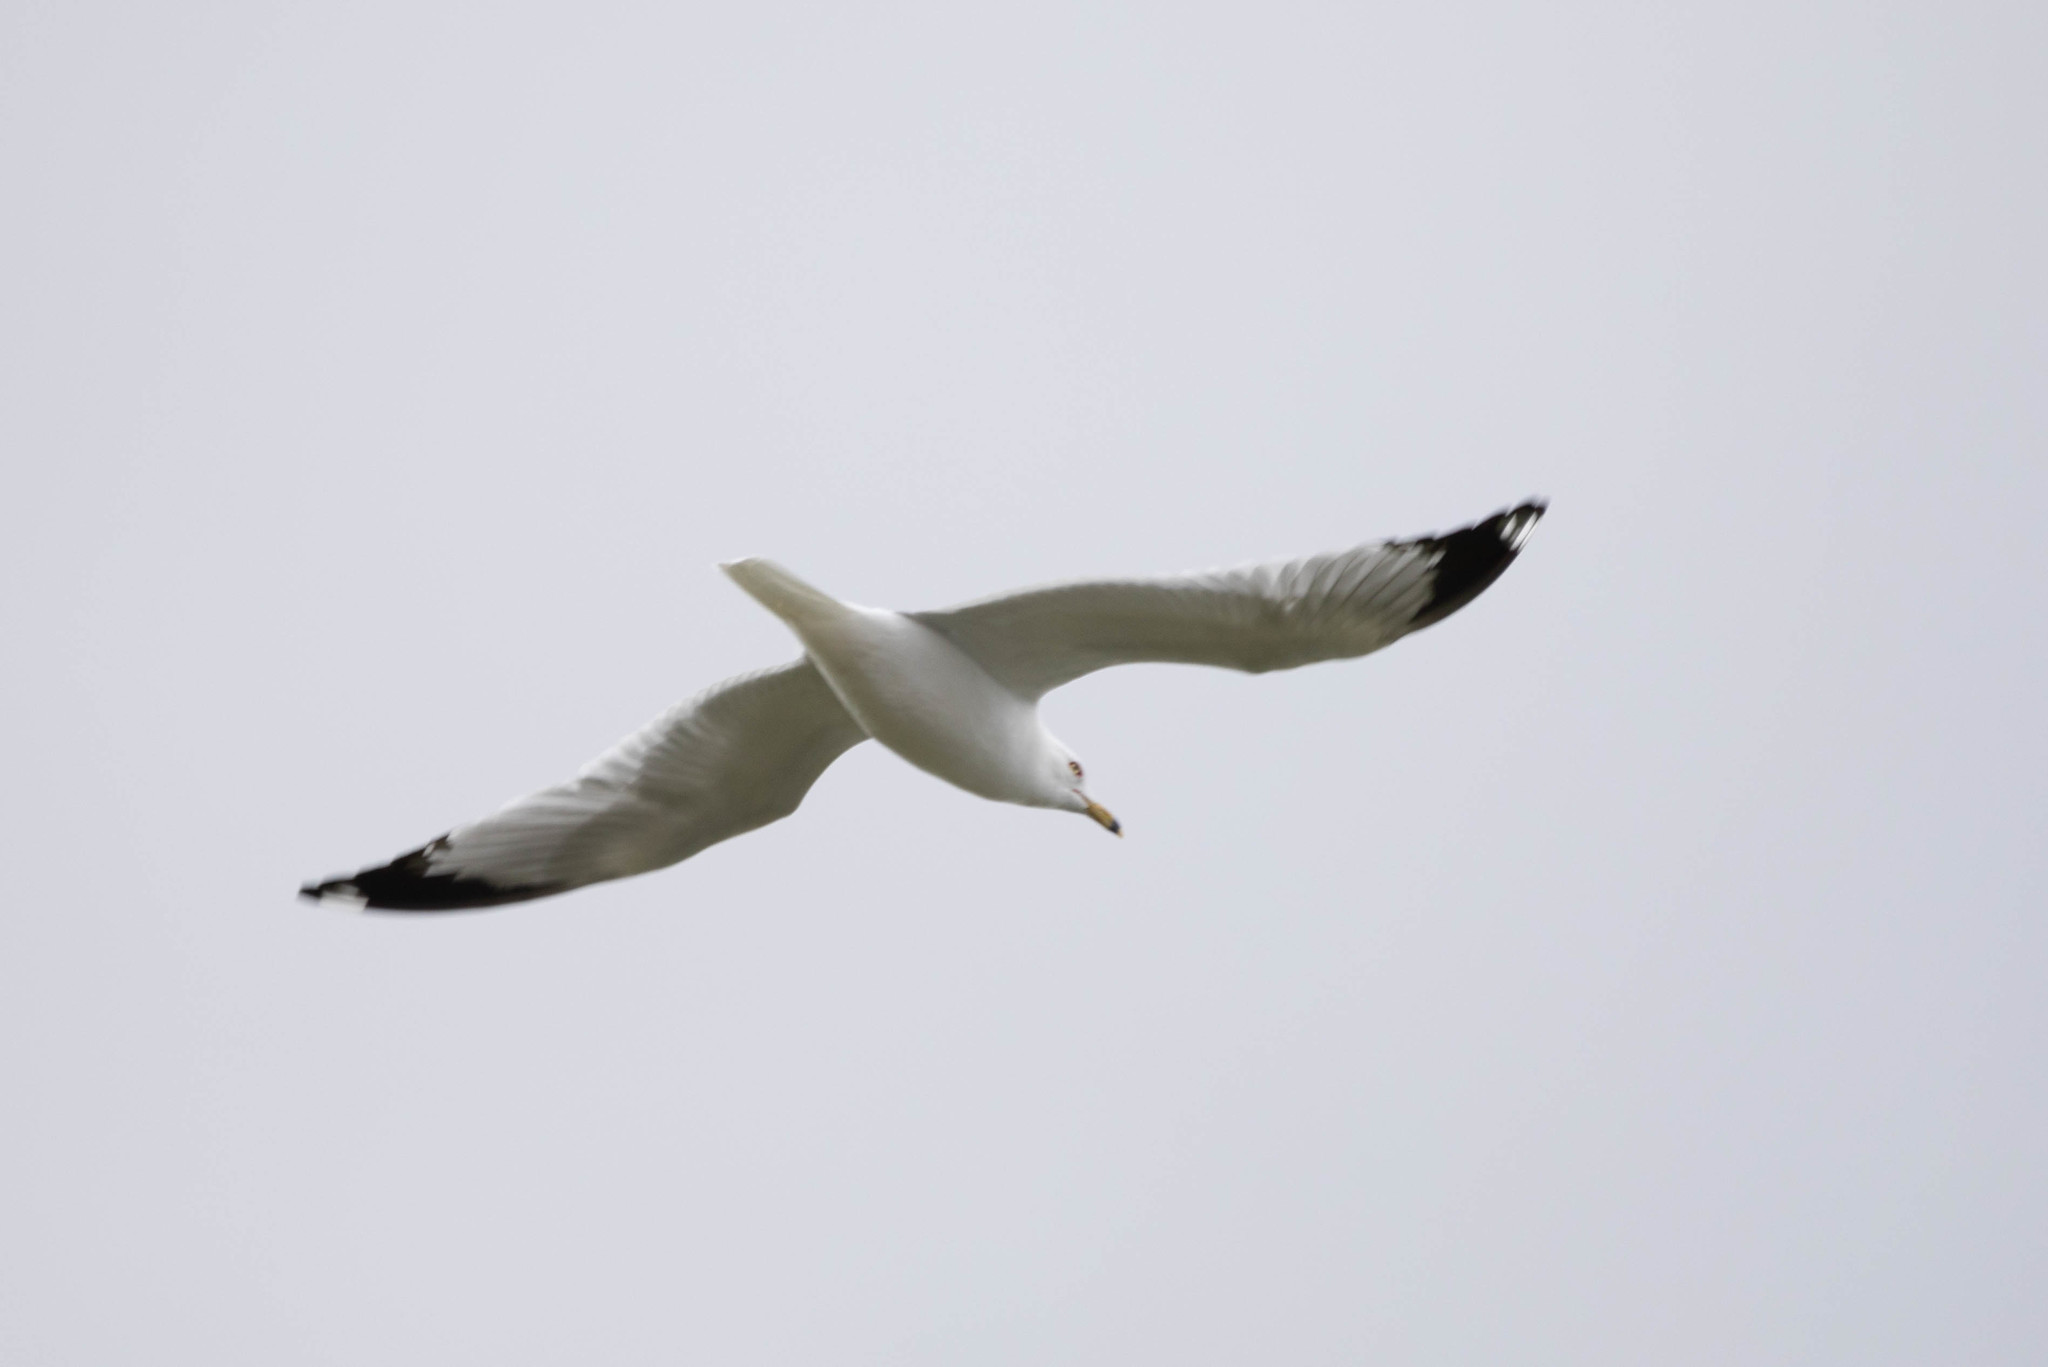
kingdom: Animalia
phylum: Chordata
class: Aves
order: Charadriiformes
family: Laridae
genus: Larus
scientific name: Larus delawarensis
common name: Ring-billed gull
